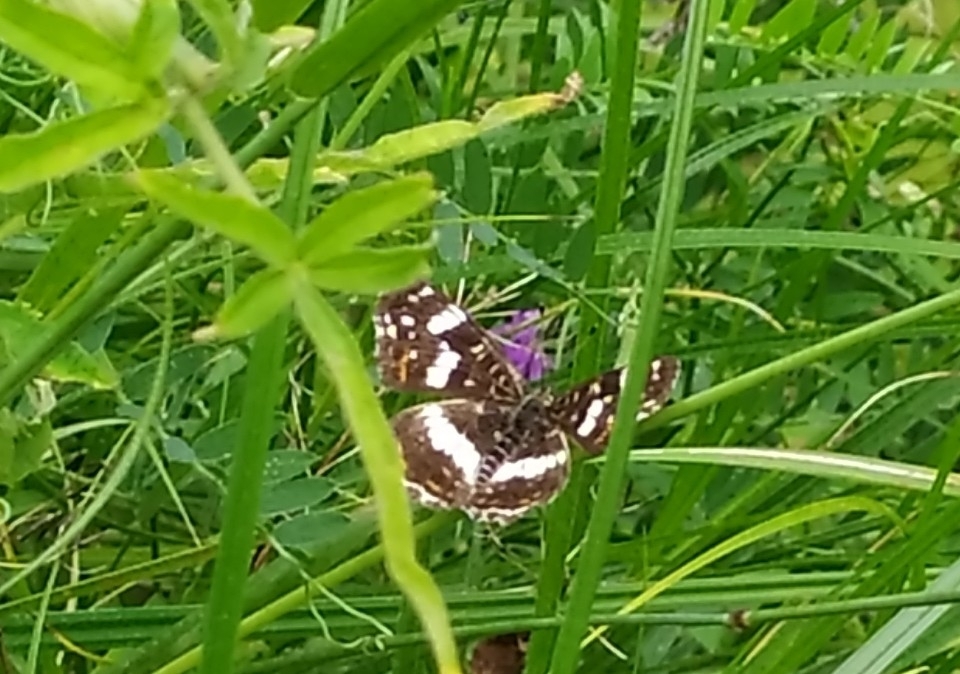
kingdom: Animalia
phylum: Arthropoda
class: Insecta
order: Lepidoptera
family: Nymphalidae
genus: Araschnia
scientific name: Araschnia levana
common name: Map butterfly
